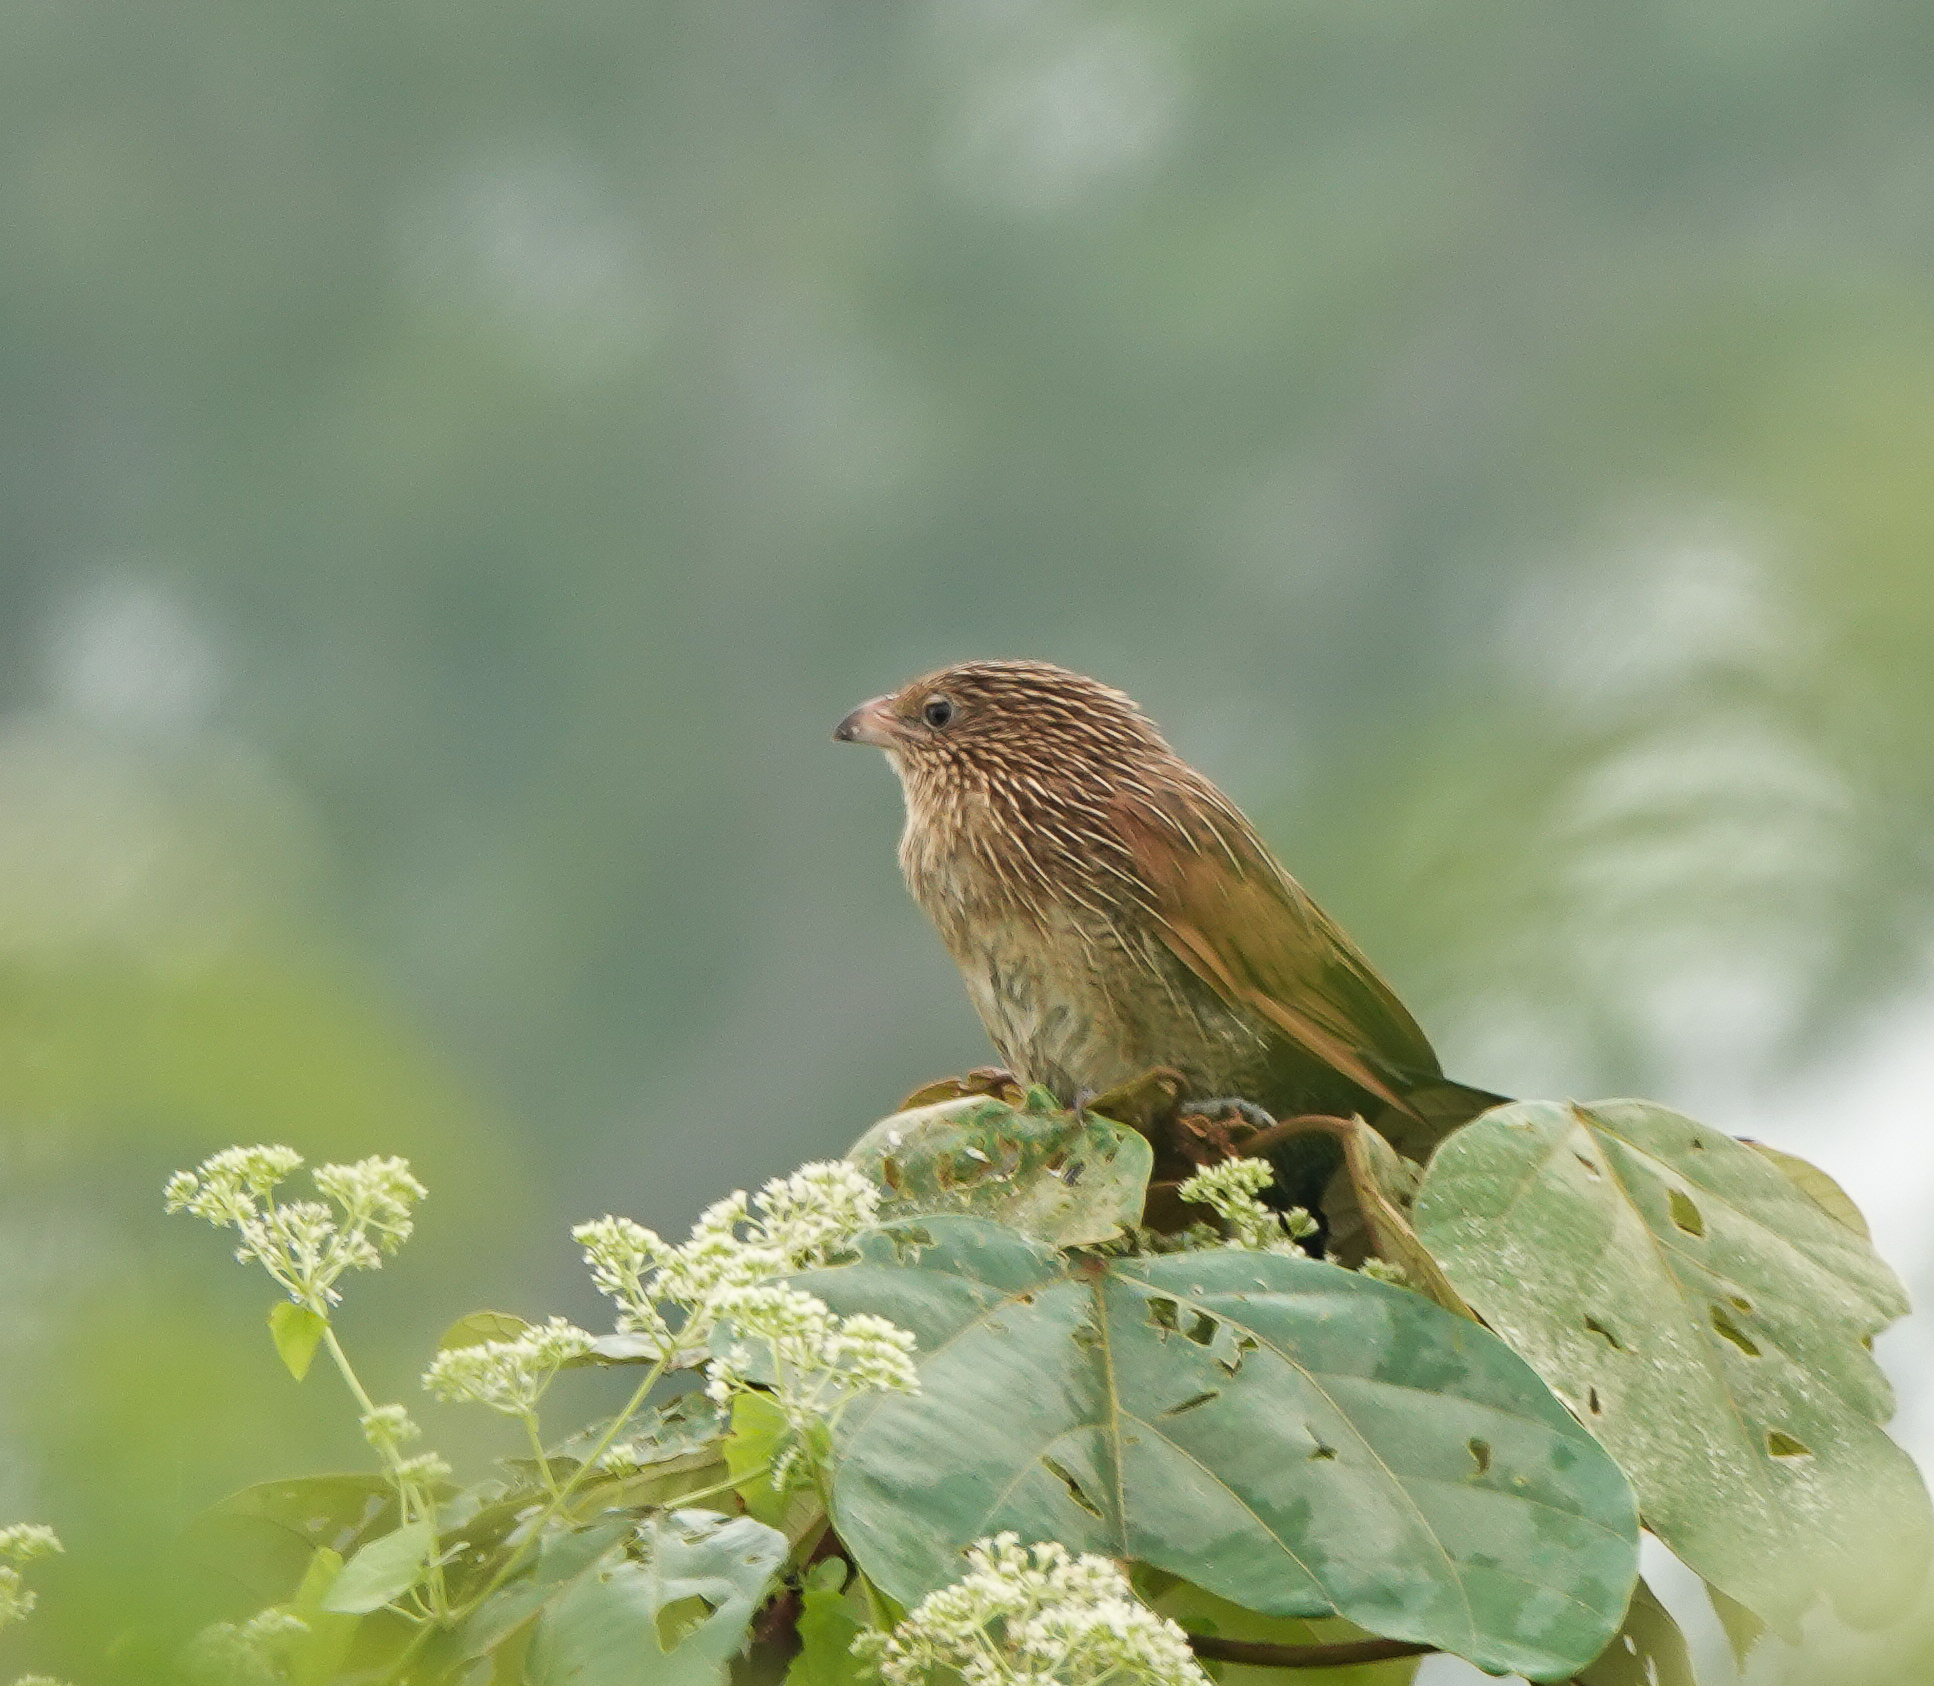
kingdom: Animalia
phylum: Chordata
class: Aves
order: Cuculiformes
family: Cuculidae
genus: Centropus
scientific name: Centropus bengalensis
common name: Lesser coucal
